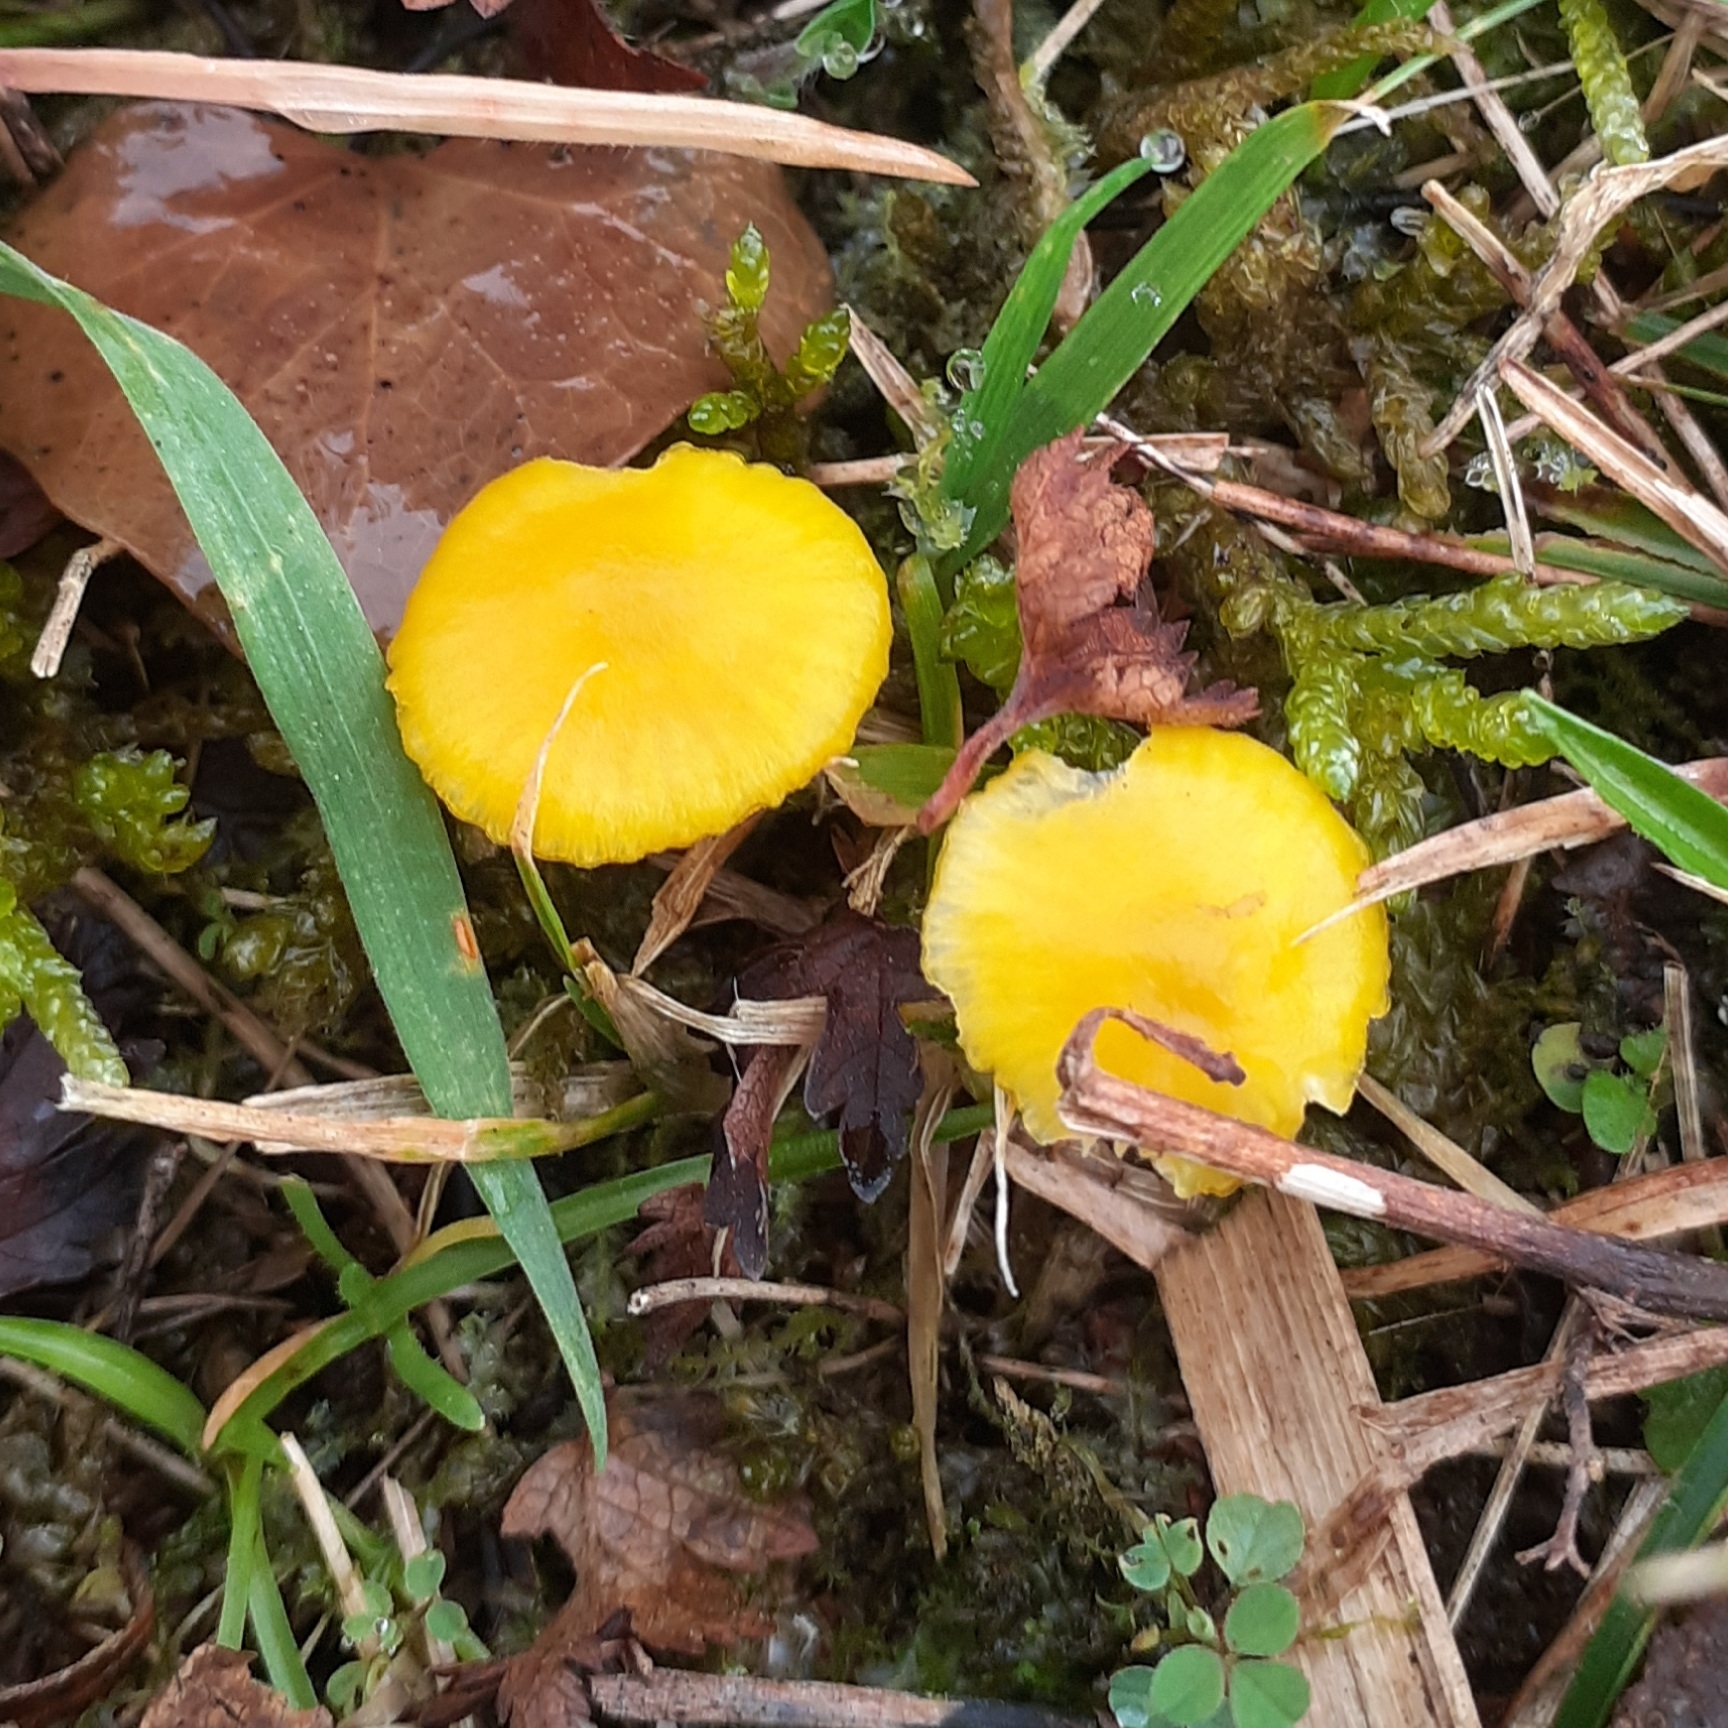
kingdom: Fungi
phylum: Basidiomycota
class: Agaricomycetes
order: Agaricales
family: Hygrophoraceae
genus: Hygrocybe
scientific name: Hygrocybe ceracea
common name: Butter waxcap
